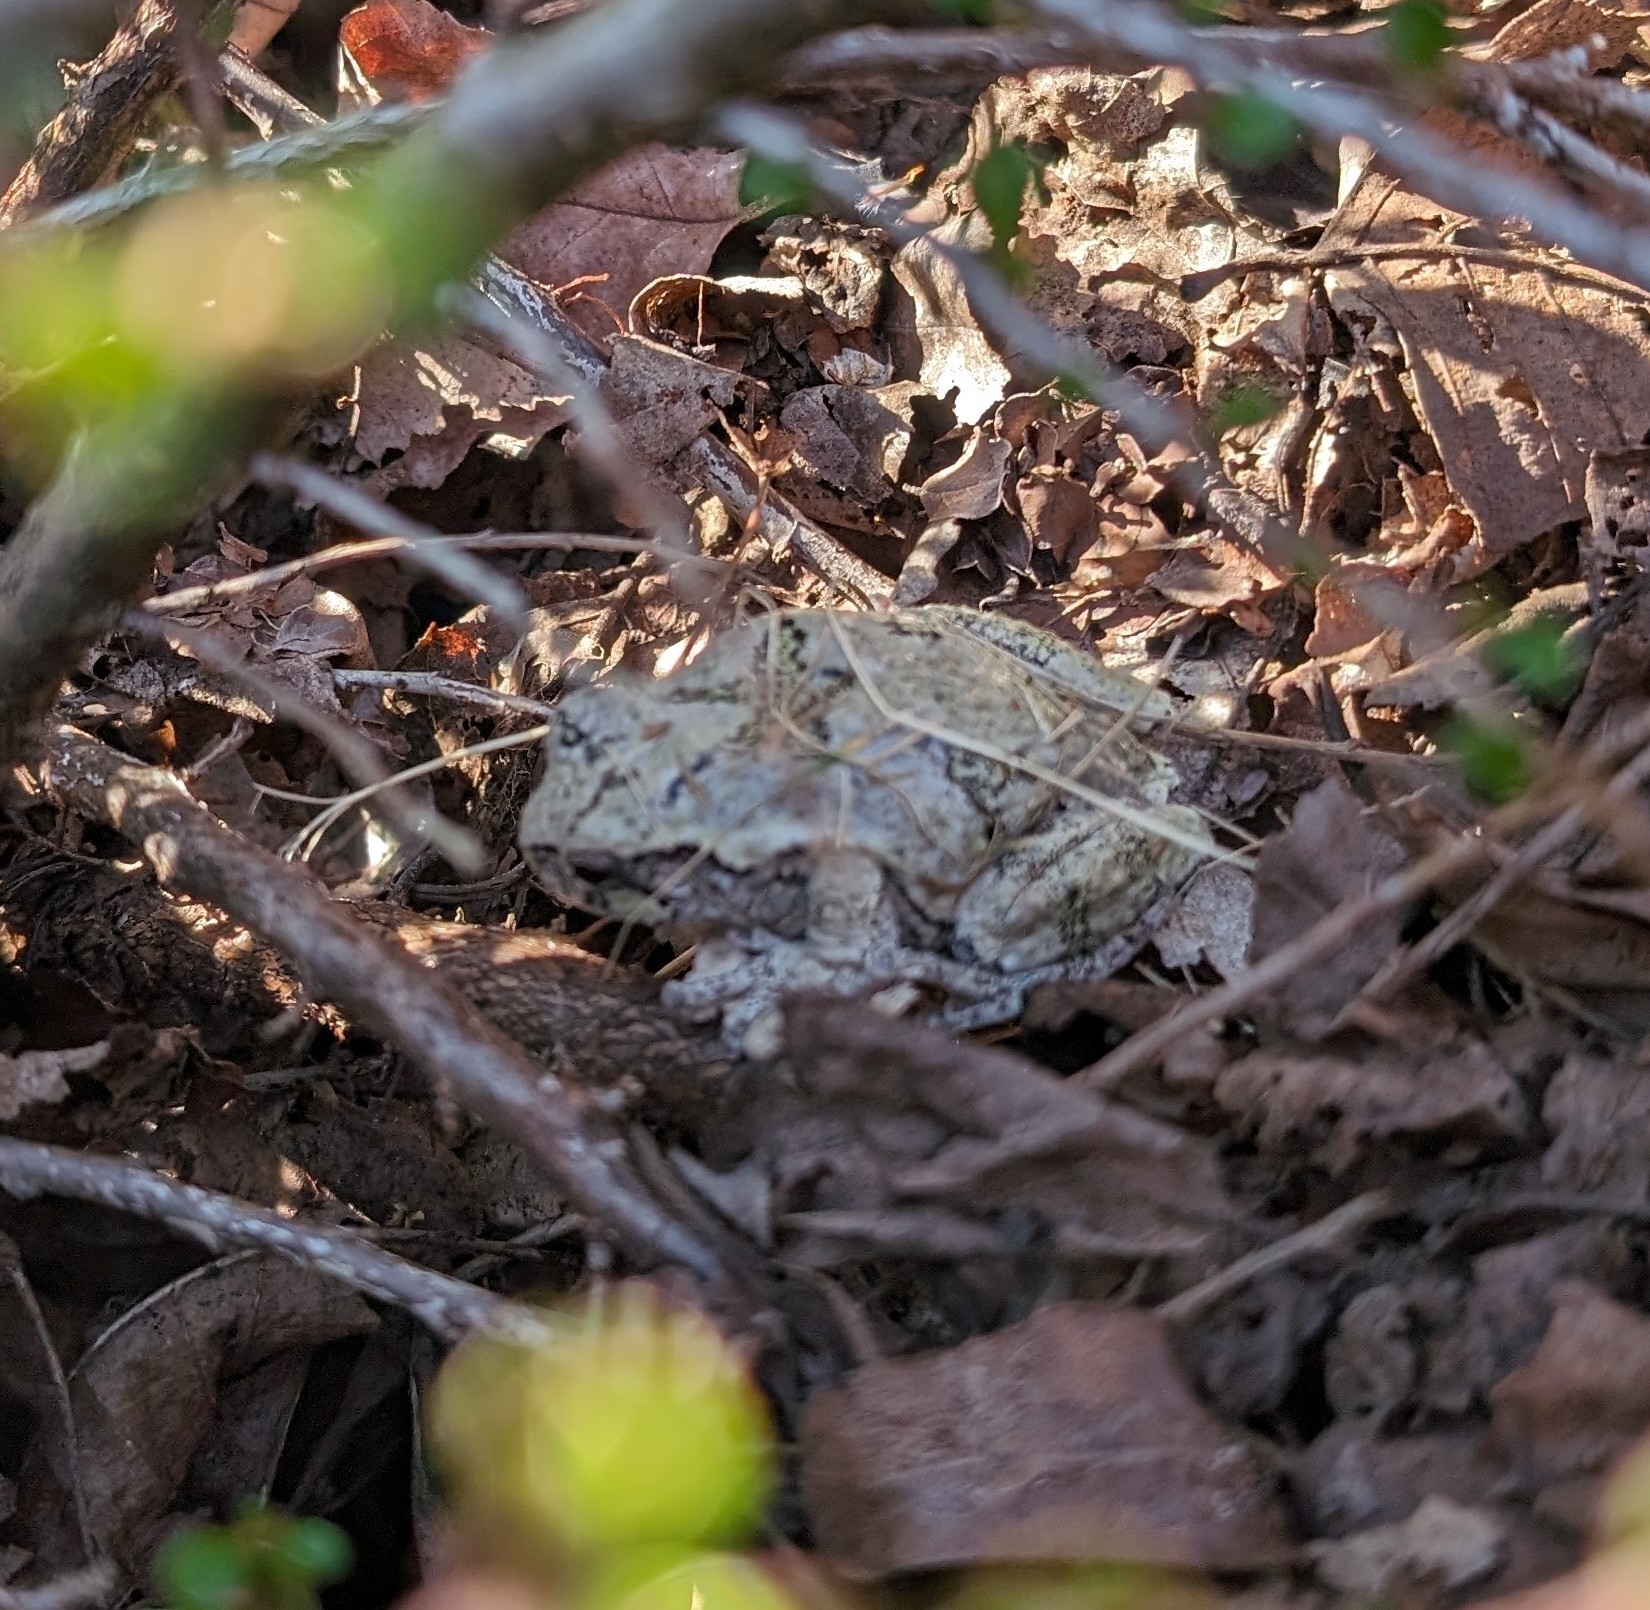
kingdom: Animalia
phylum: Chordata
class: Amphibia
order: Anura
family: Hylidae
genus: Dryophytes
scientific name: Dryophytes versicolor
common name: Gray treefrog
